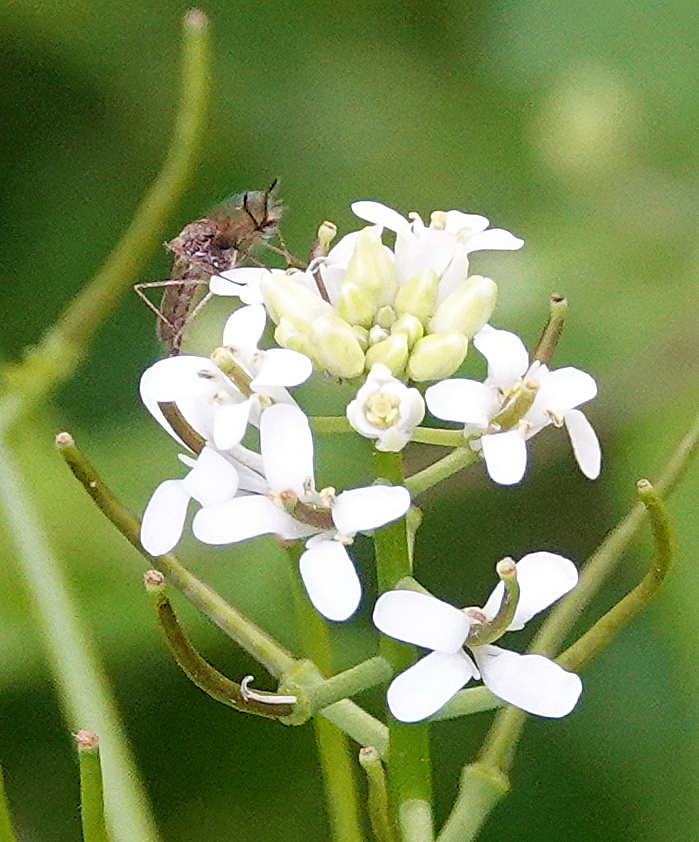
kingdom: Plantae
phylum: Tracheophyta
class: Magnoliopsida
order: Brassicales
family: Brassicaceae
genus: Alliaria
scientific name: Alliaria petiolata
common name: Garlic mustard
